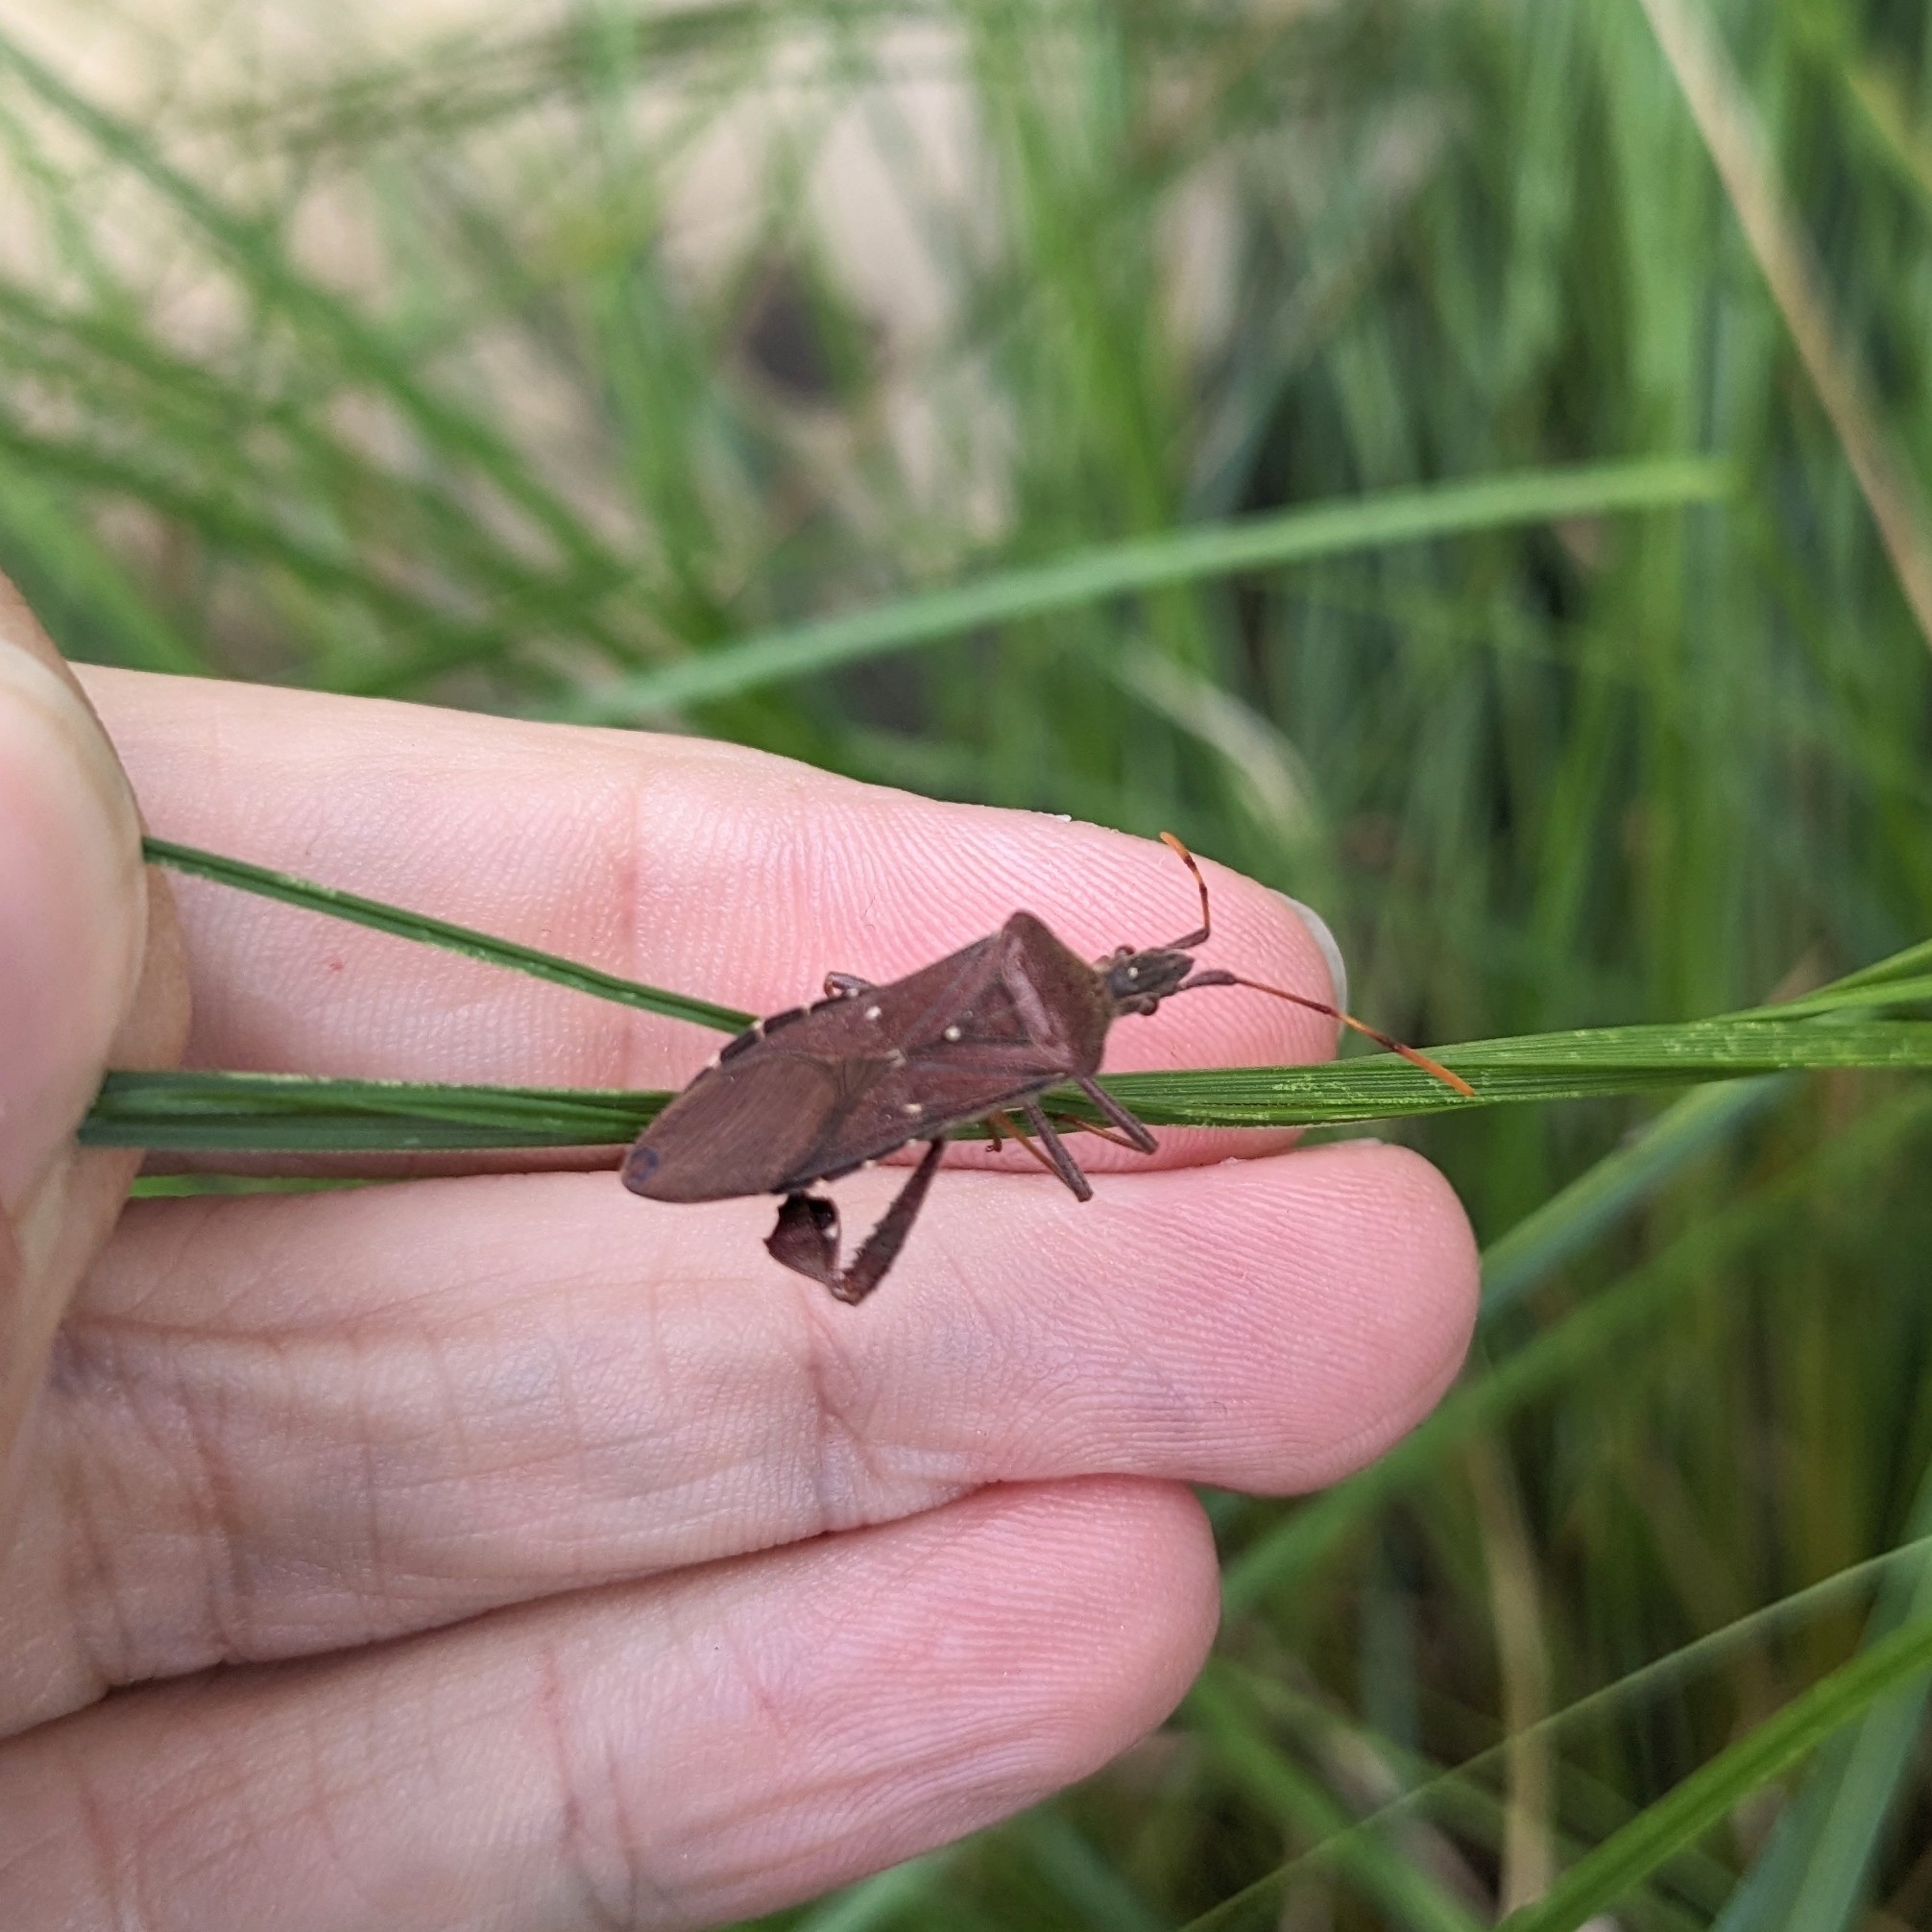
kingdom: Animalia
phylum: Arthropoda
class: Insecta
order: Hemiptera
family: Coreidae
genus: Leptoglossus
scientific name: Leptoglossus oppositus
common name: Northern leaf-footed bug
